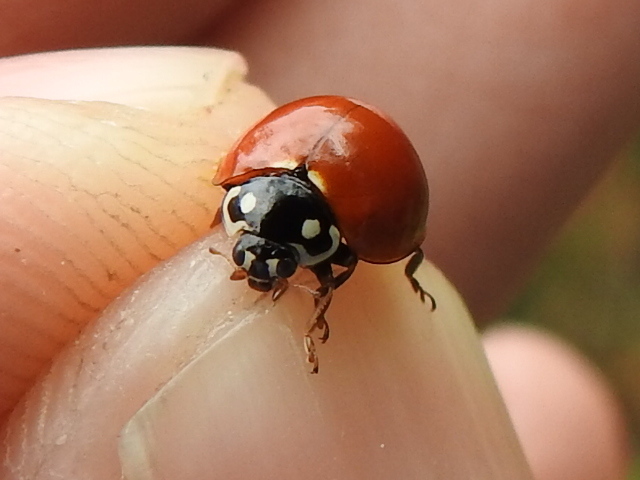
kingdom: Animalia
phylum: Arthropoda
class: Insecta
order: Coleoptera
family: Coccinellidae
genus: Cycloneda
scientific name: Cycloneda sanguinea
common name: Ladybird beetle
